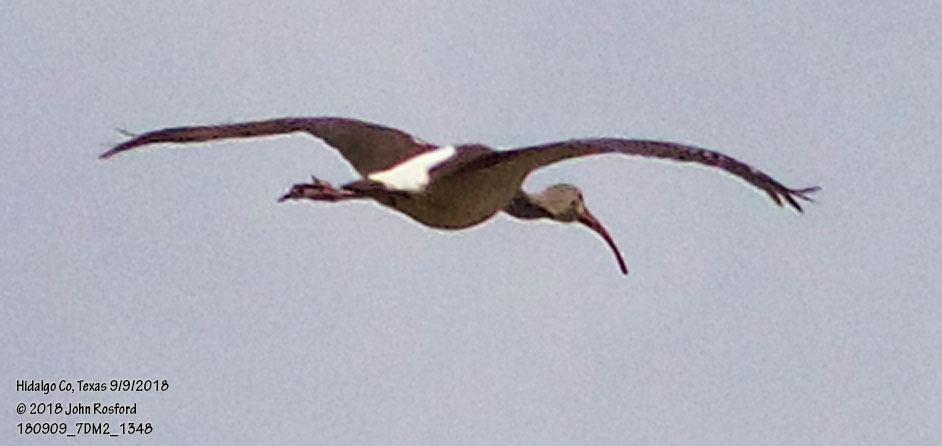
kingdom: Animalia
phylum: Chordata
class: Aves
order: Pelecaniformes
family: Threskiornithidae
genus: Eudocimus
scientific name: Eudocimus albus
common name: White ibis
